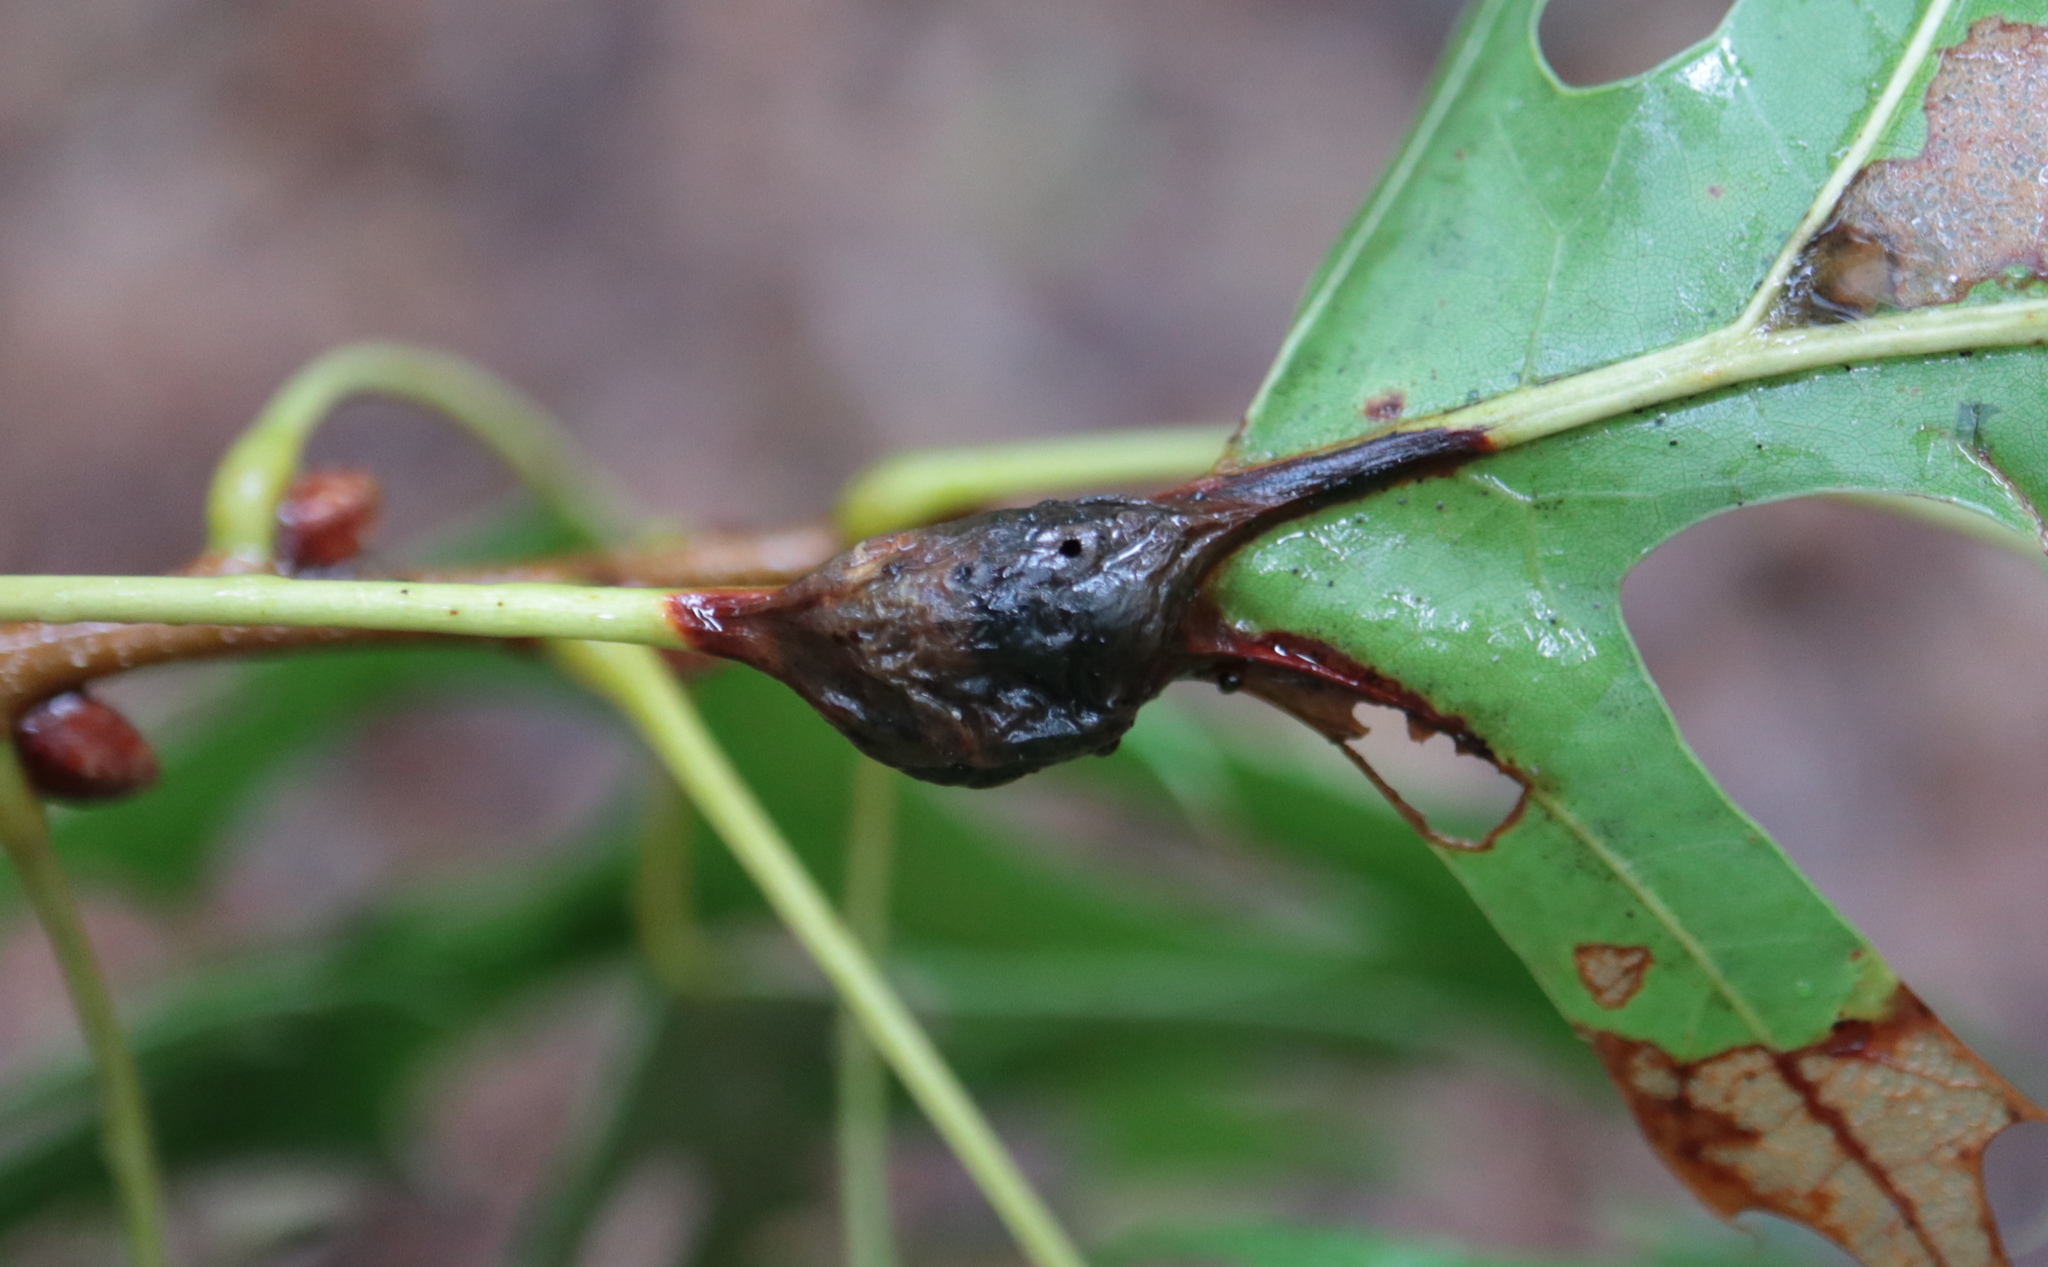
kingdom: Animalia
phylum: Arthropoda
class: Insecta
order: Hymenoptera
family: Cynipidae
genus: Melikaiella
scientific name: Melikaiella tumifica
